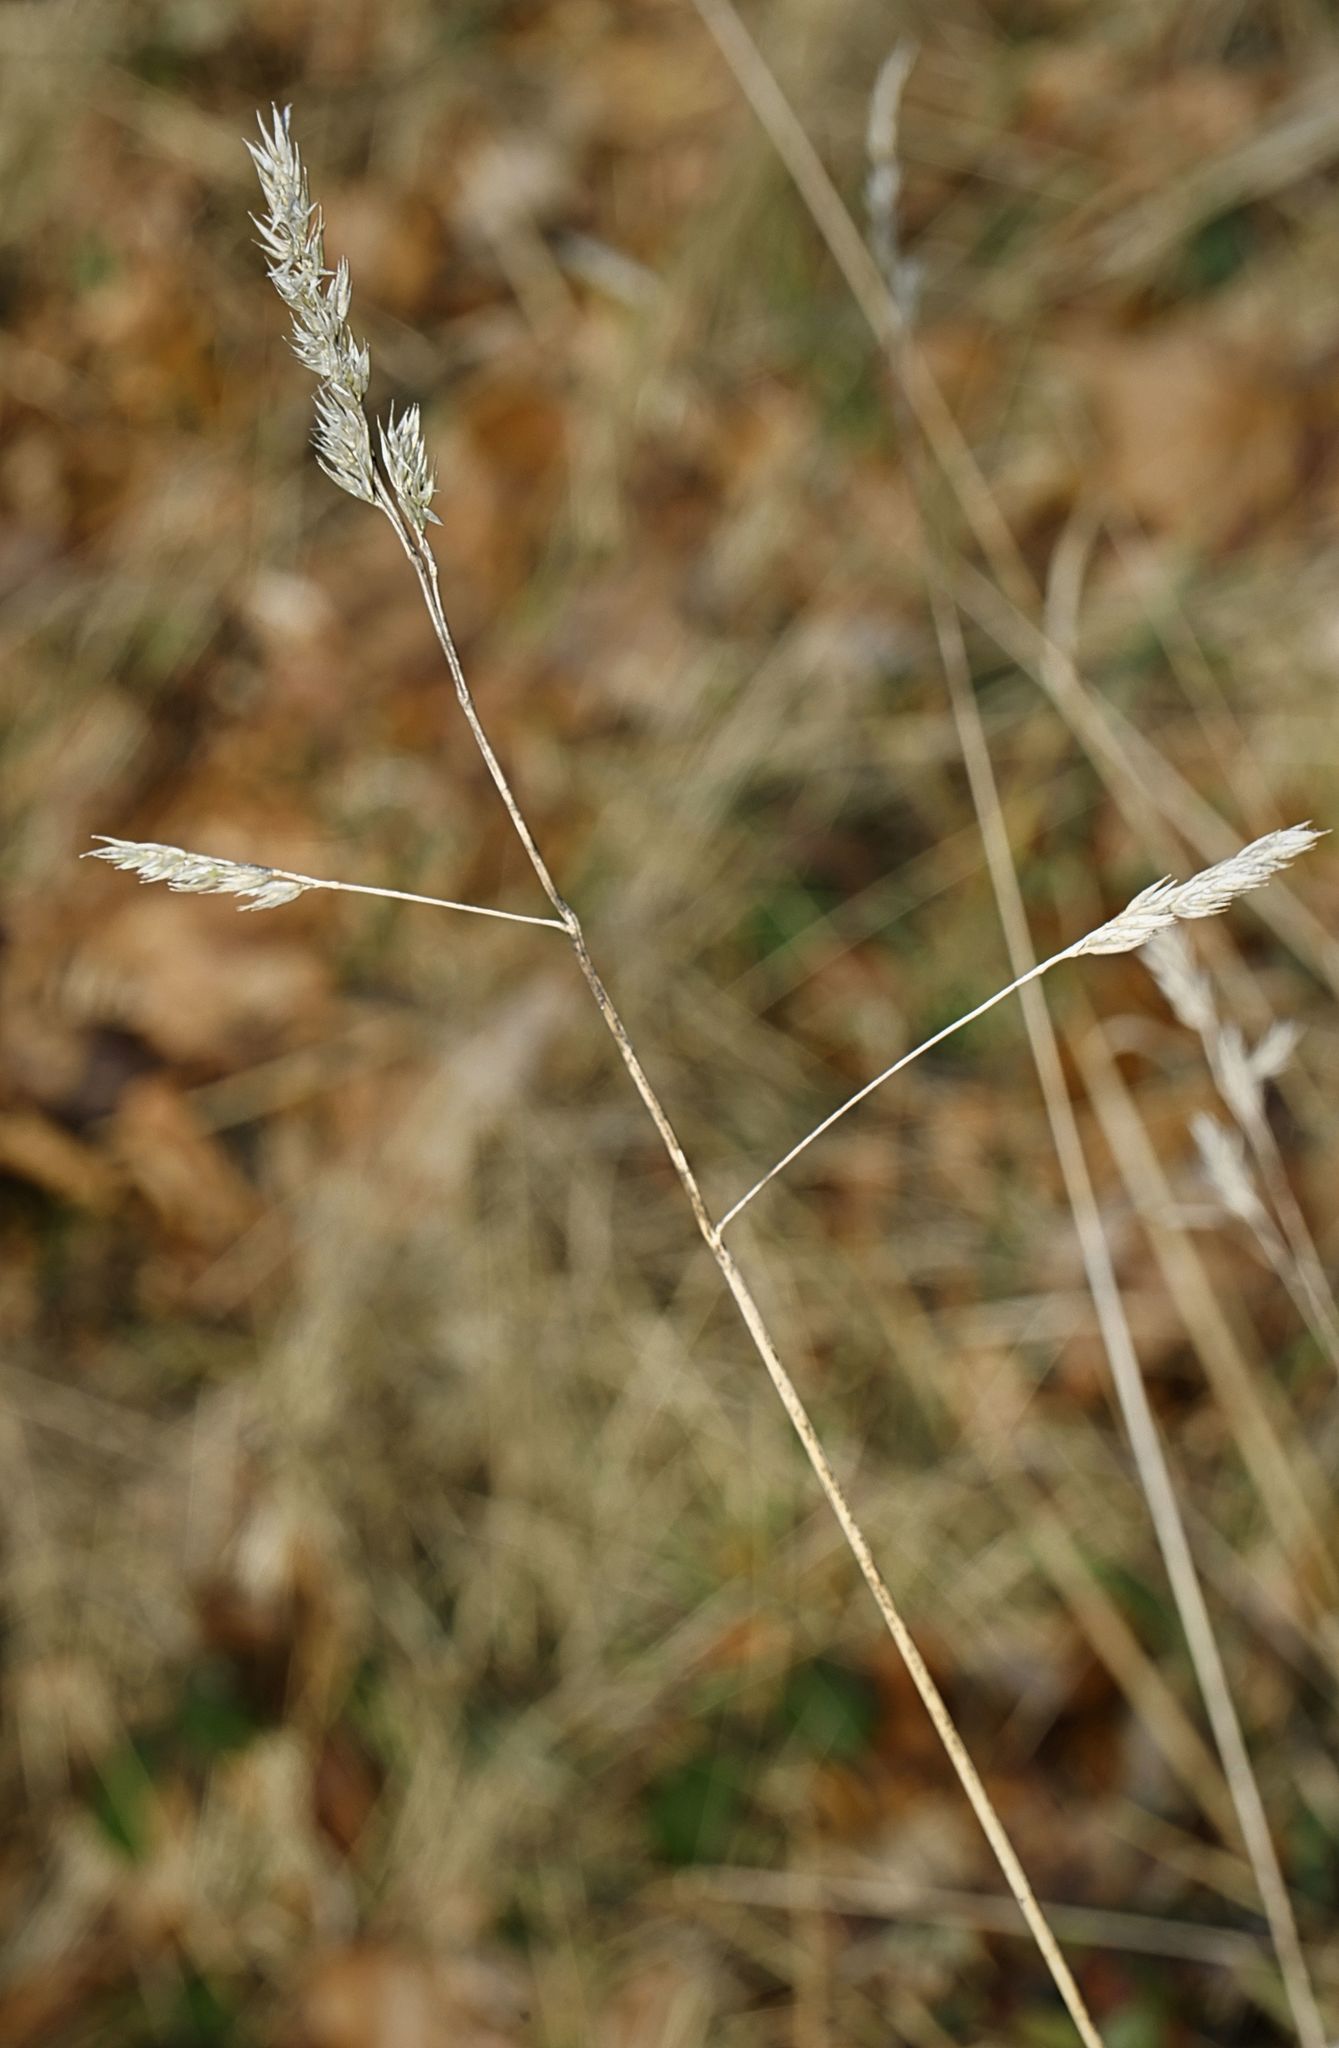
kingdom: Plantae
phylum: Tracheophyta
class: Liliopsida
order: Poales
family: Poaceae
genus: Dactylis
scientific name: Dactylis glomerata
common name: Orchardgrass
